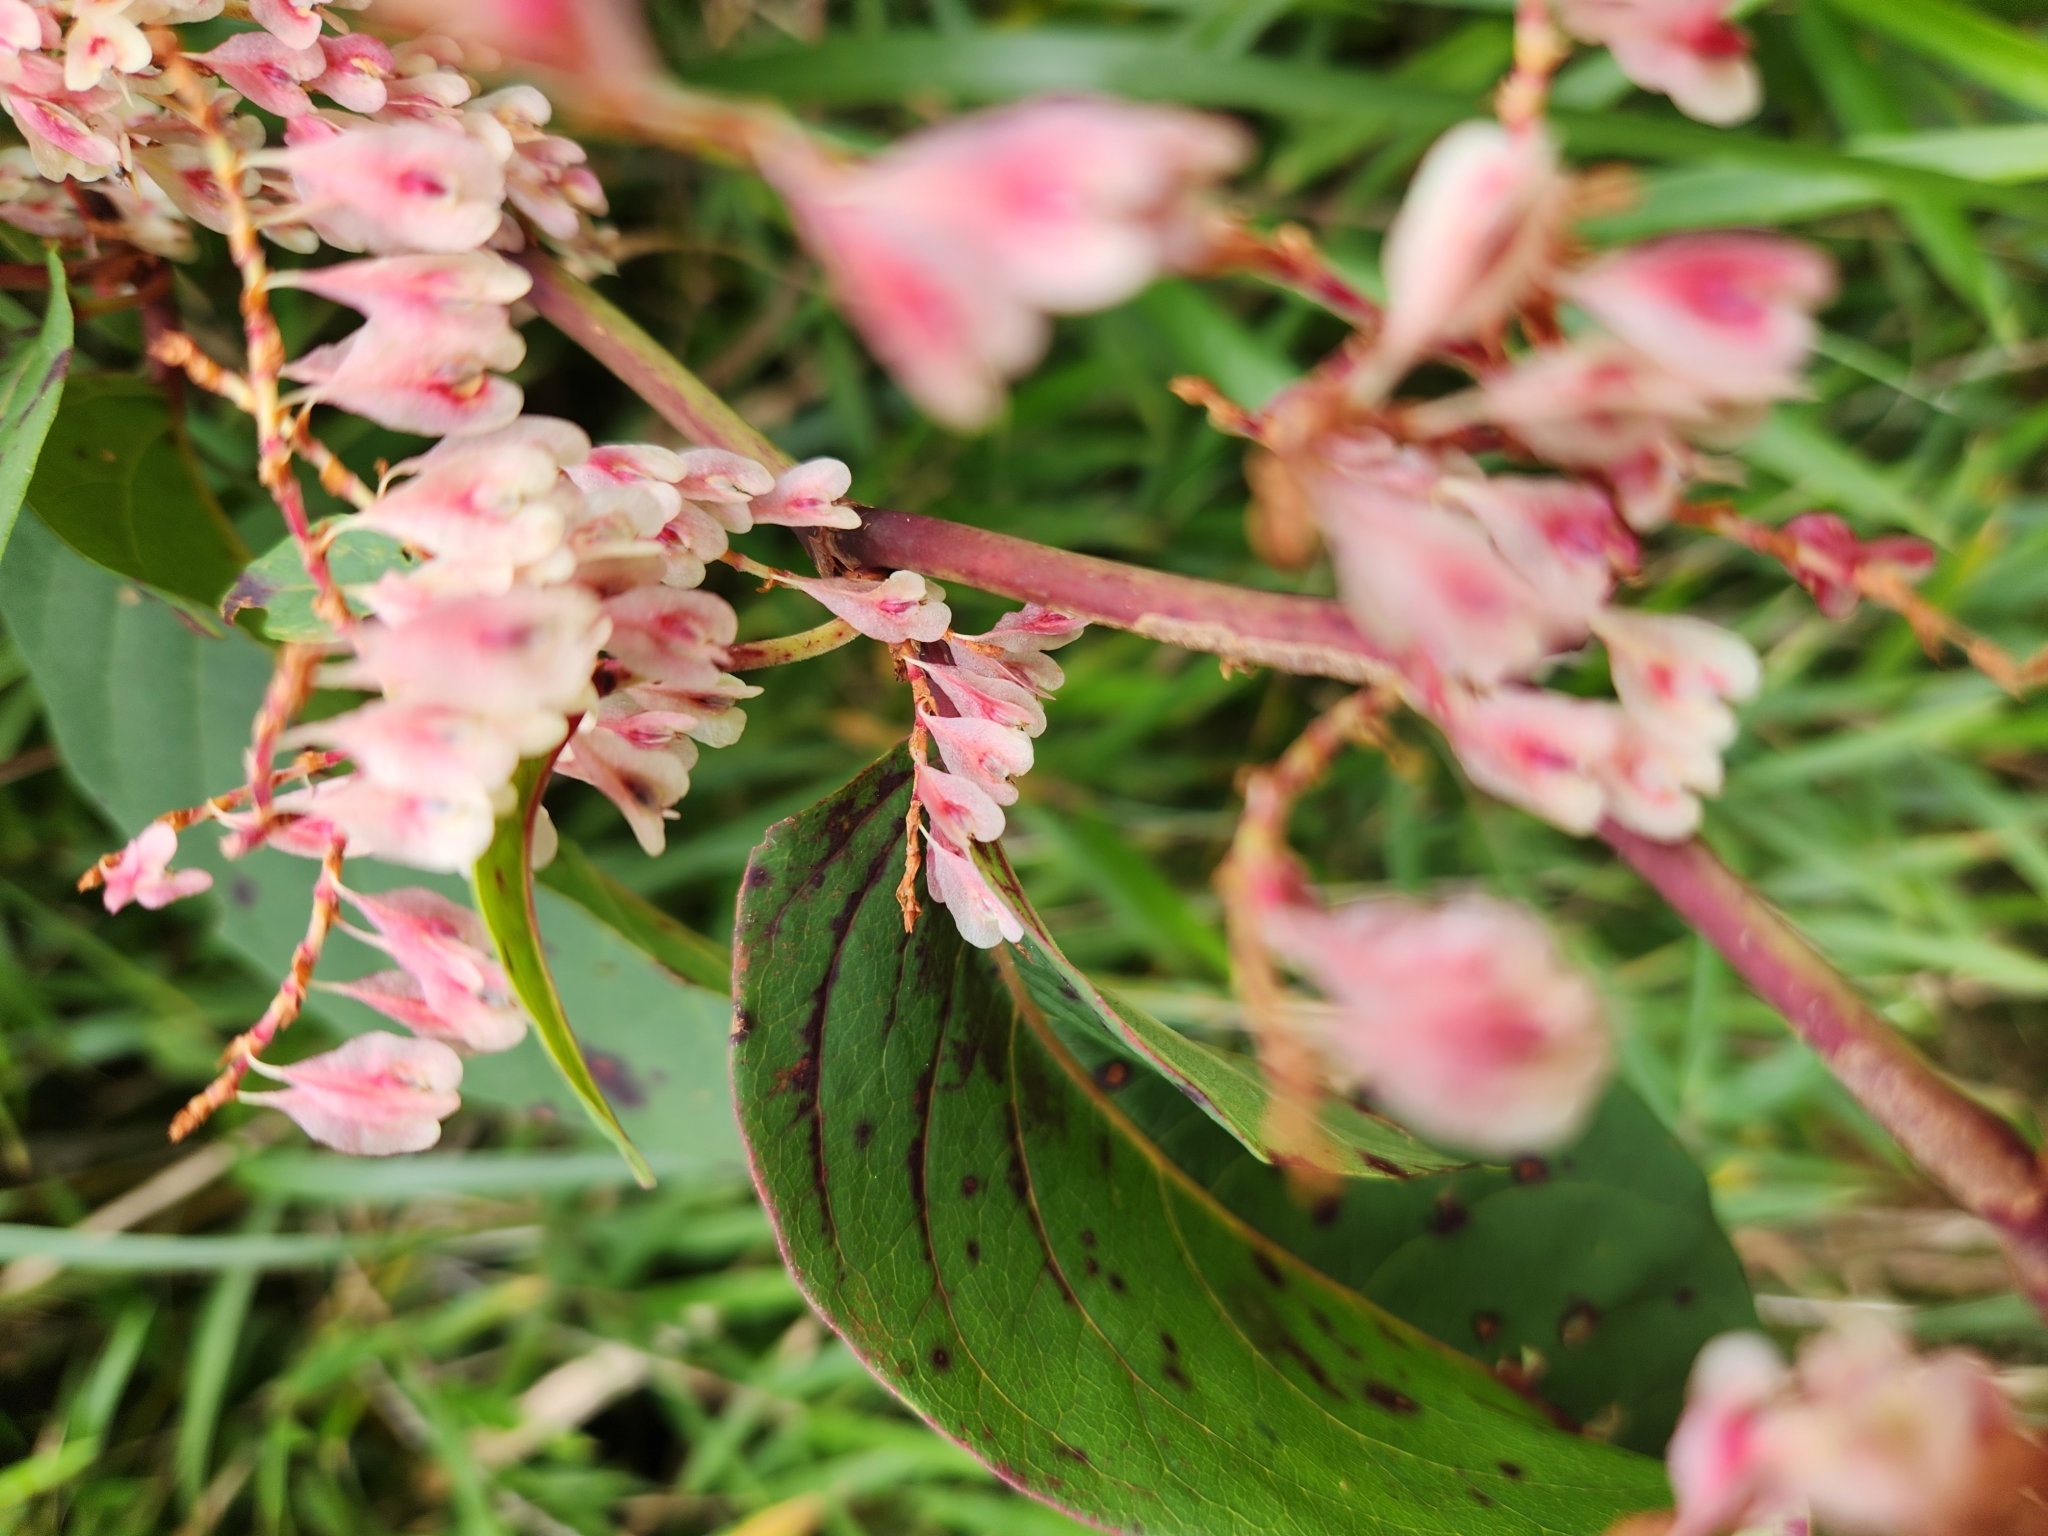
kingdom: Plantae
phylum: Tracheophyta
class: Magnoliopsida
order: Caryophyllales
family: Polygonaceae
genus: Reynoutria
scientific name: Reynoutria japonica
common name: Japanese knotweed
